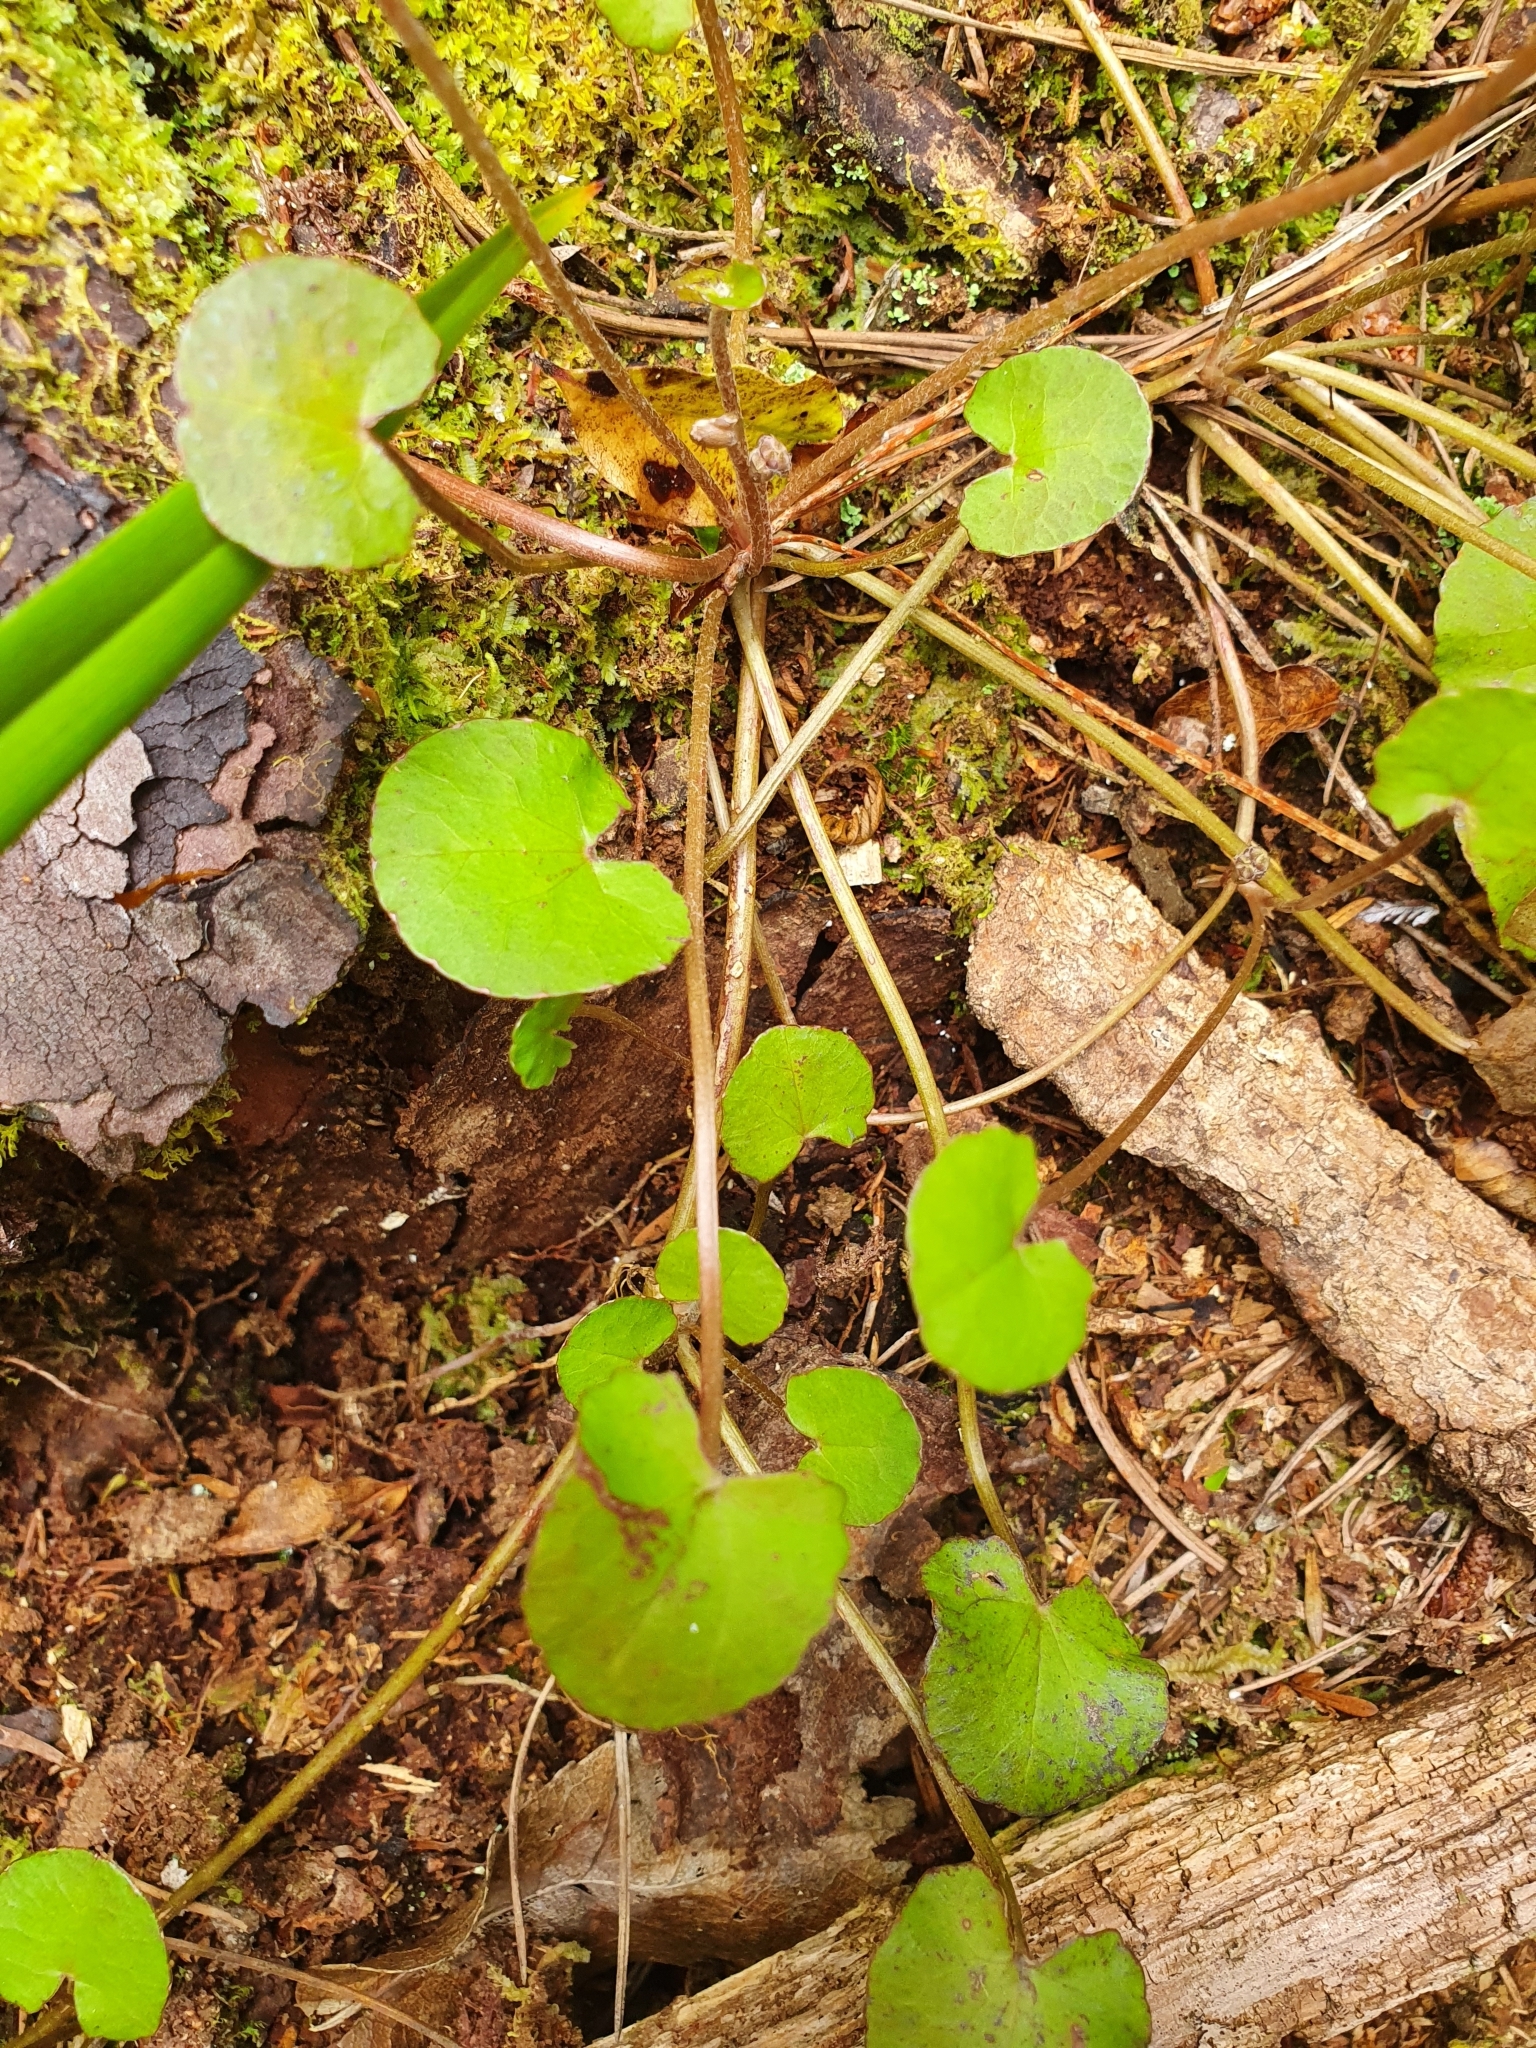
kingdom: Plantae
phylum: Tracheophyta
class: Magnoliopsida
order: Apiales
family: Apiaceae
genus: Centella
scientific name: Centella uniflora
